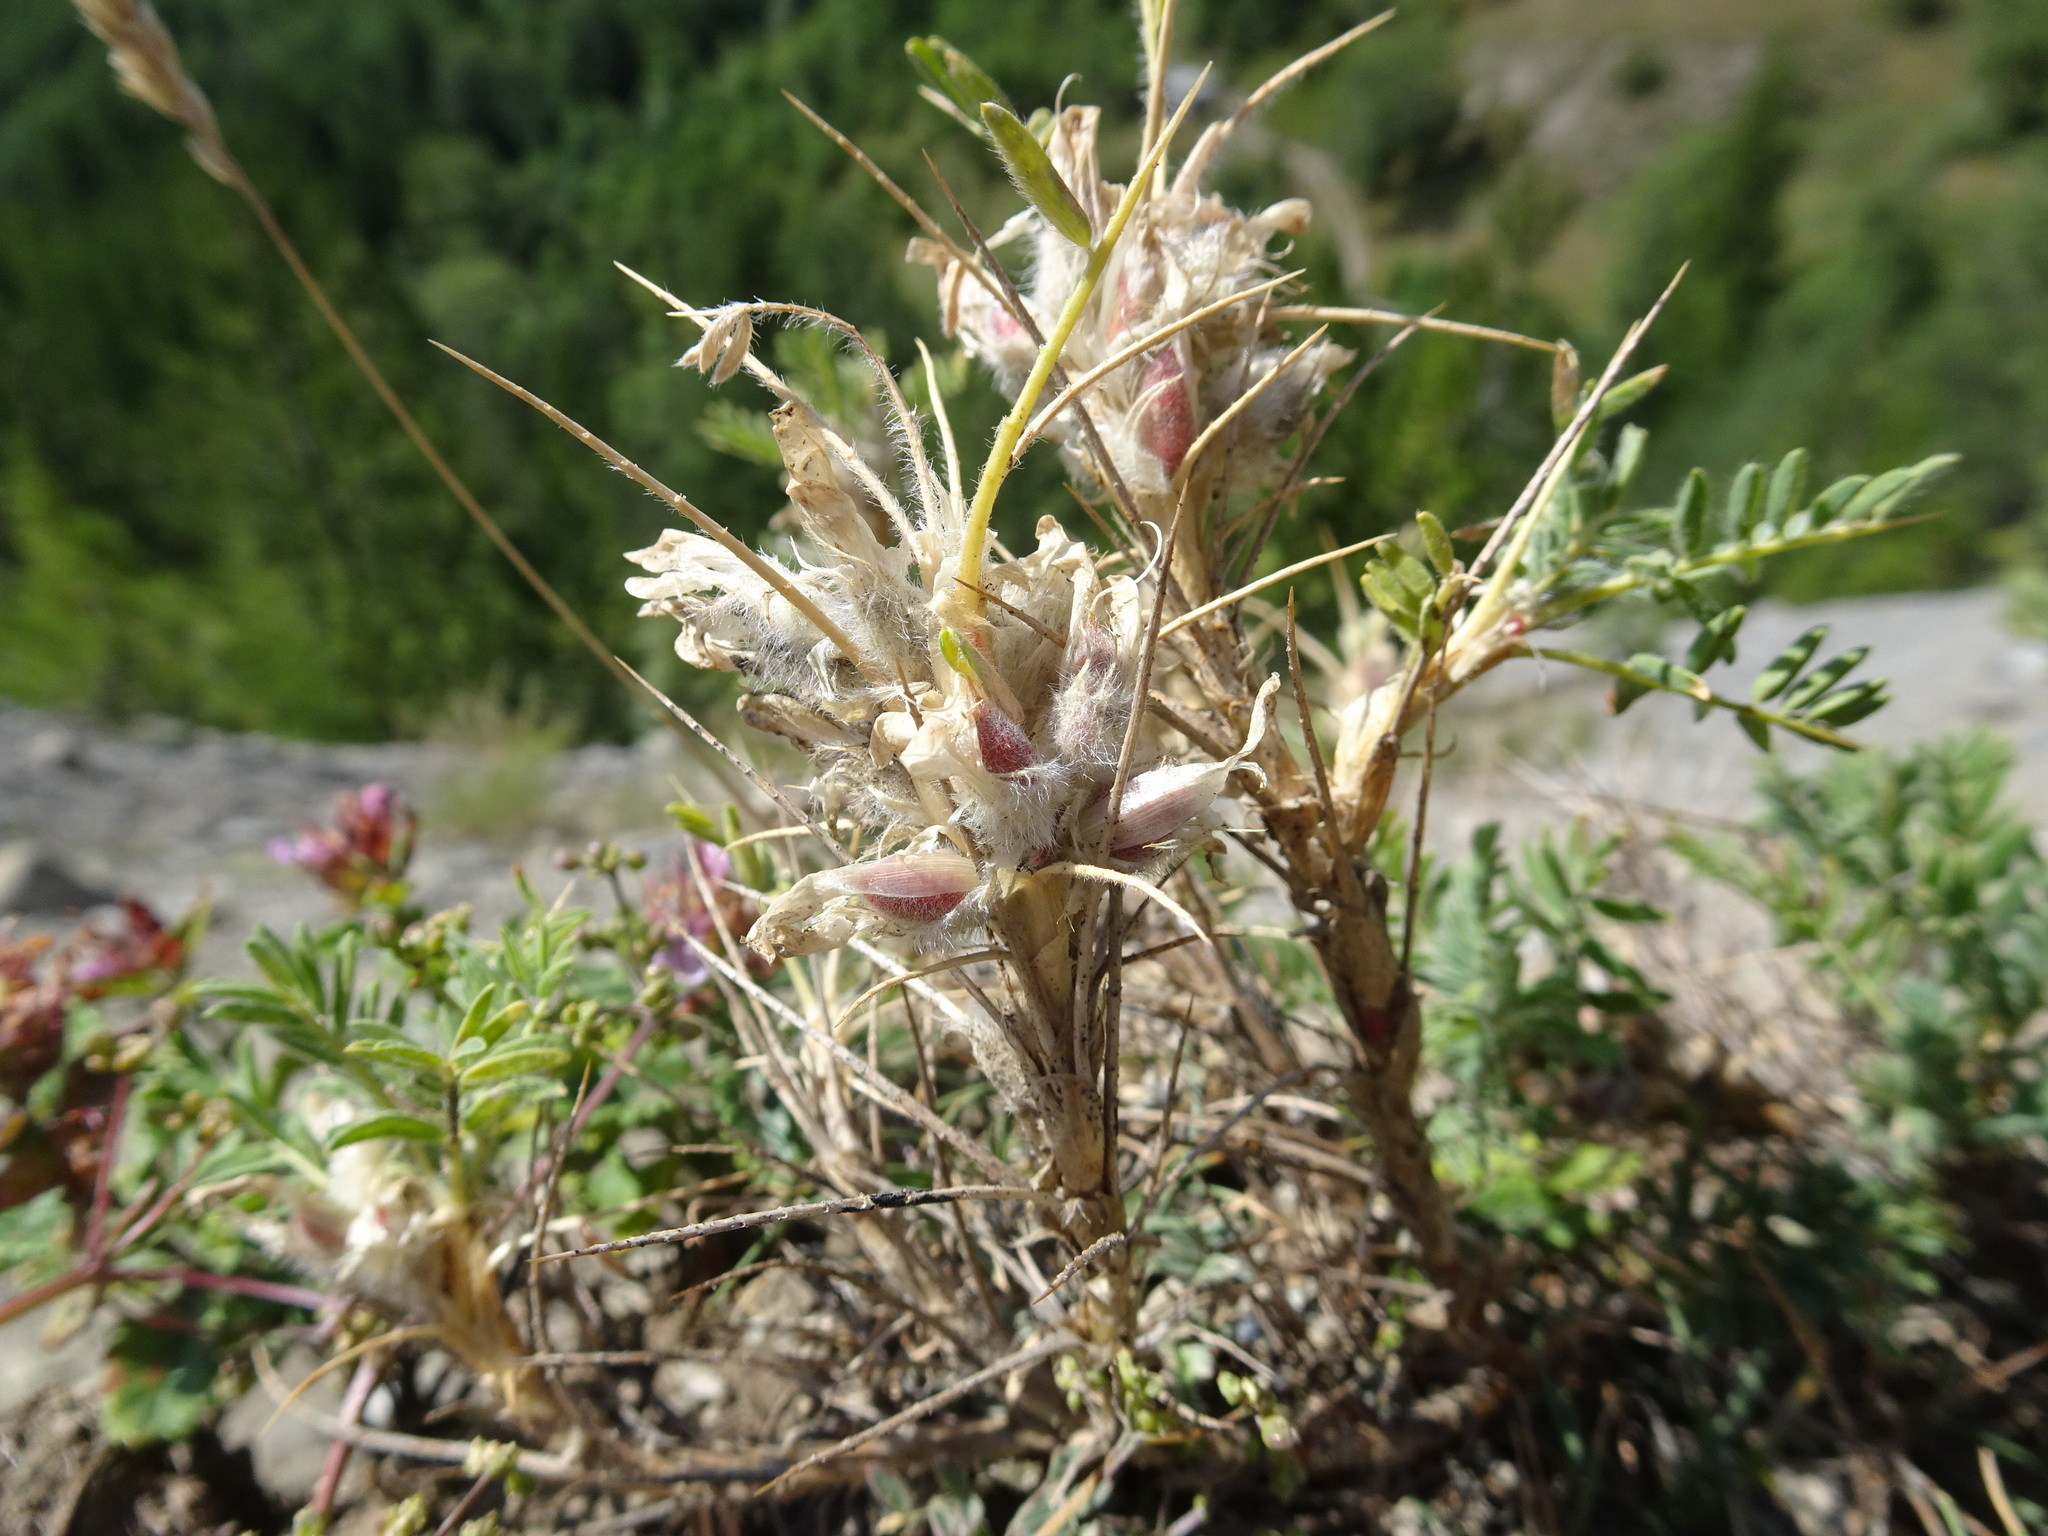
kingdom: Plantae
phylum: Tracheophyta
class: Magnoliopsida
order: Fabales
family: Fabaceae
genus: Astragalus
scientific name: Astragalus sempervirens
